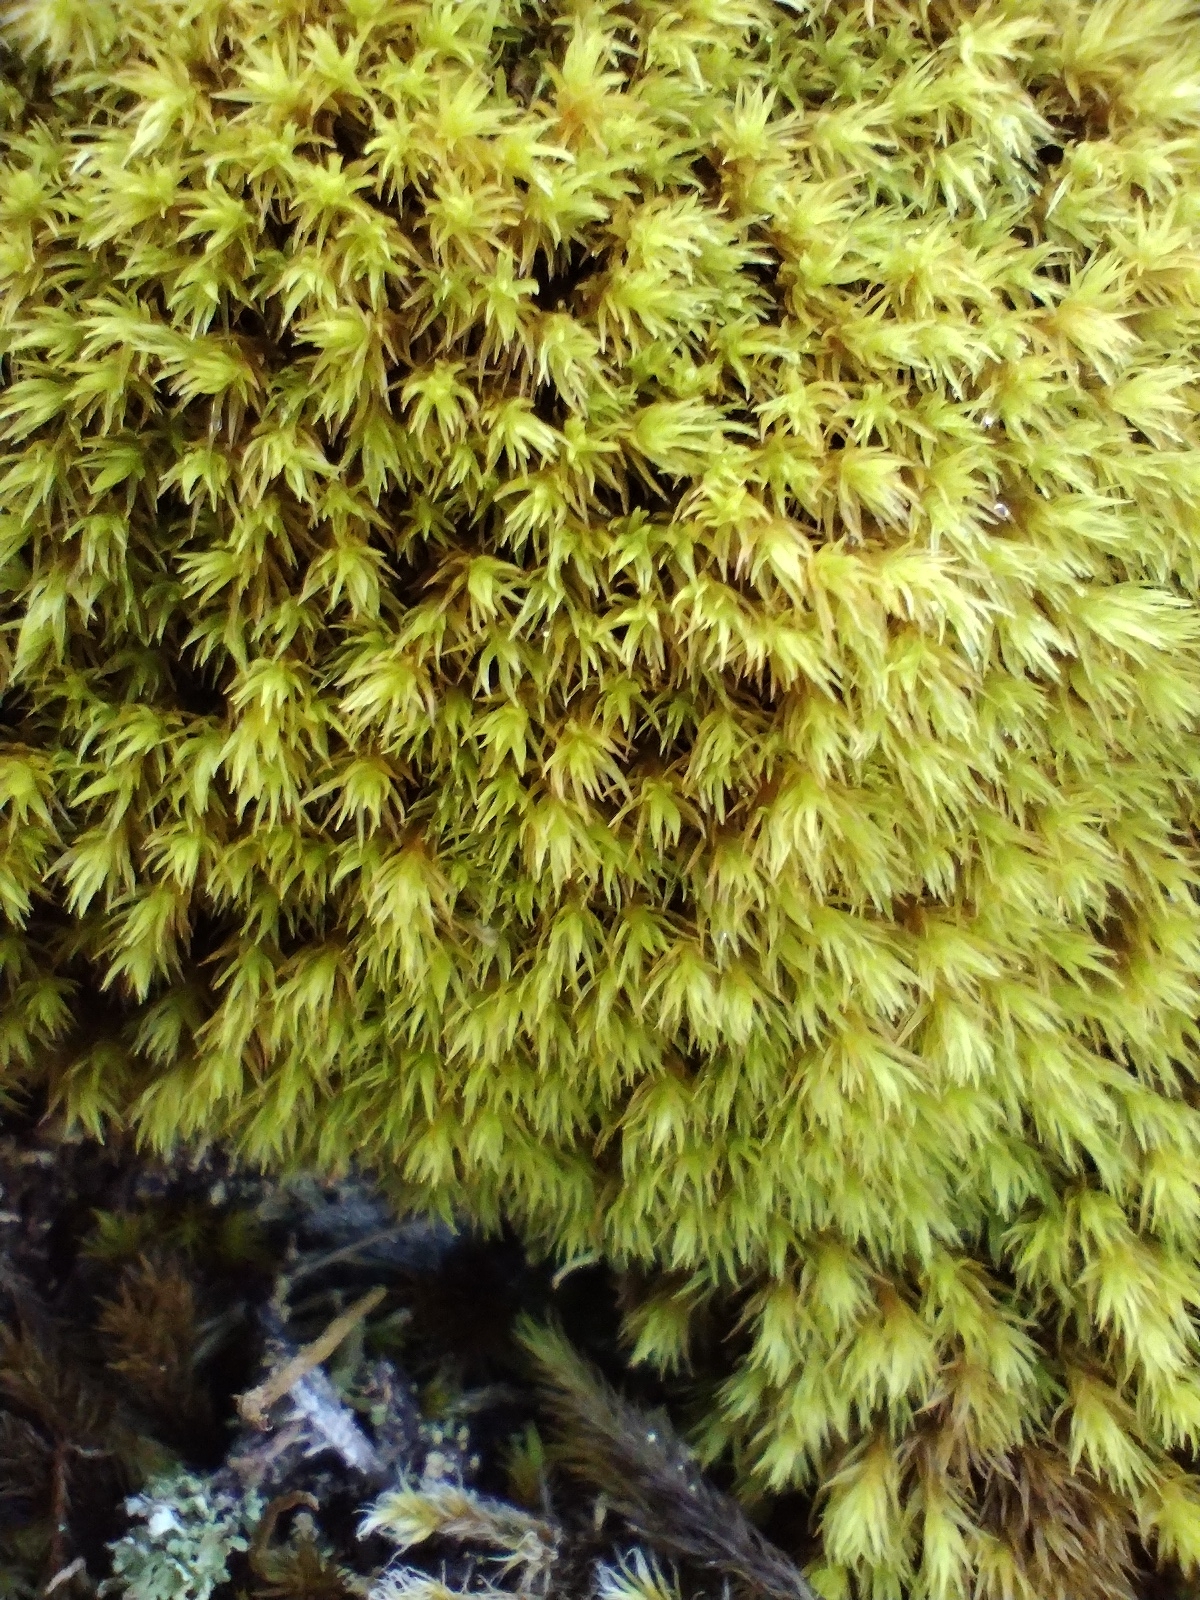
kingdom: Plantae
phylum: Bryophyta
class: Bryopsida
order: Grimmiales
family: Grimmiaceae
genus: Grimmia
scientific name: Grimmia ramondii
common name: Spreading-leaved grimmia
